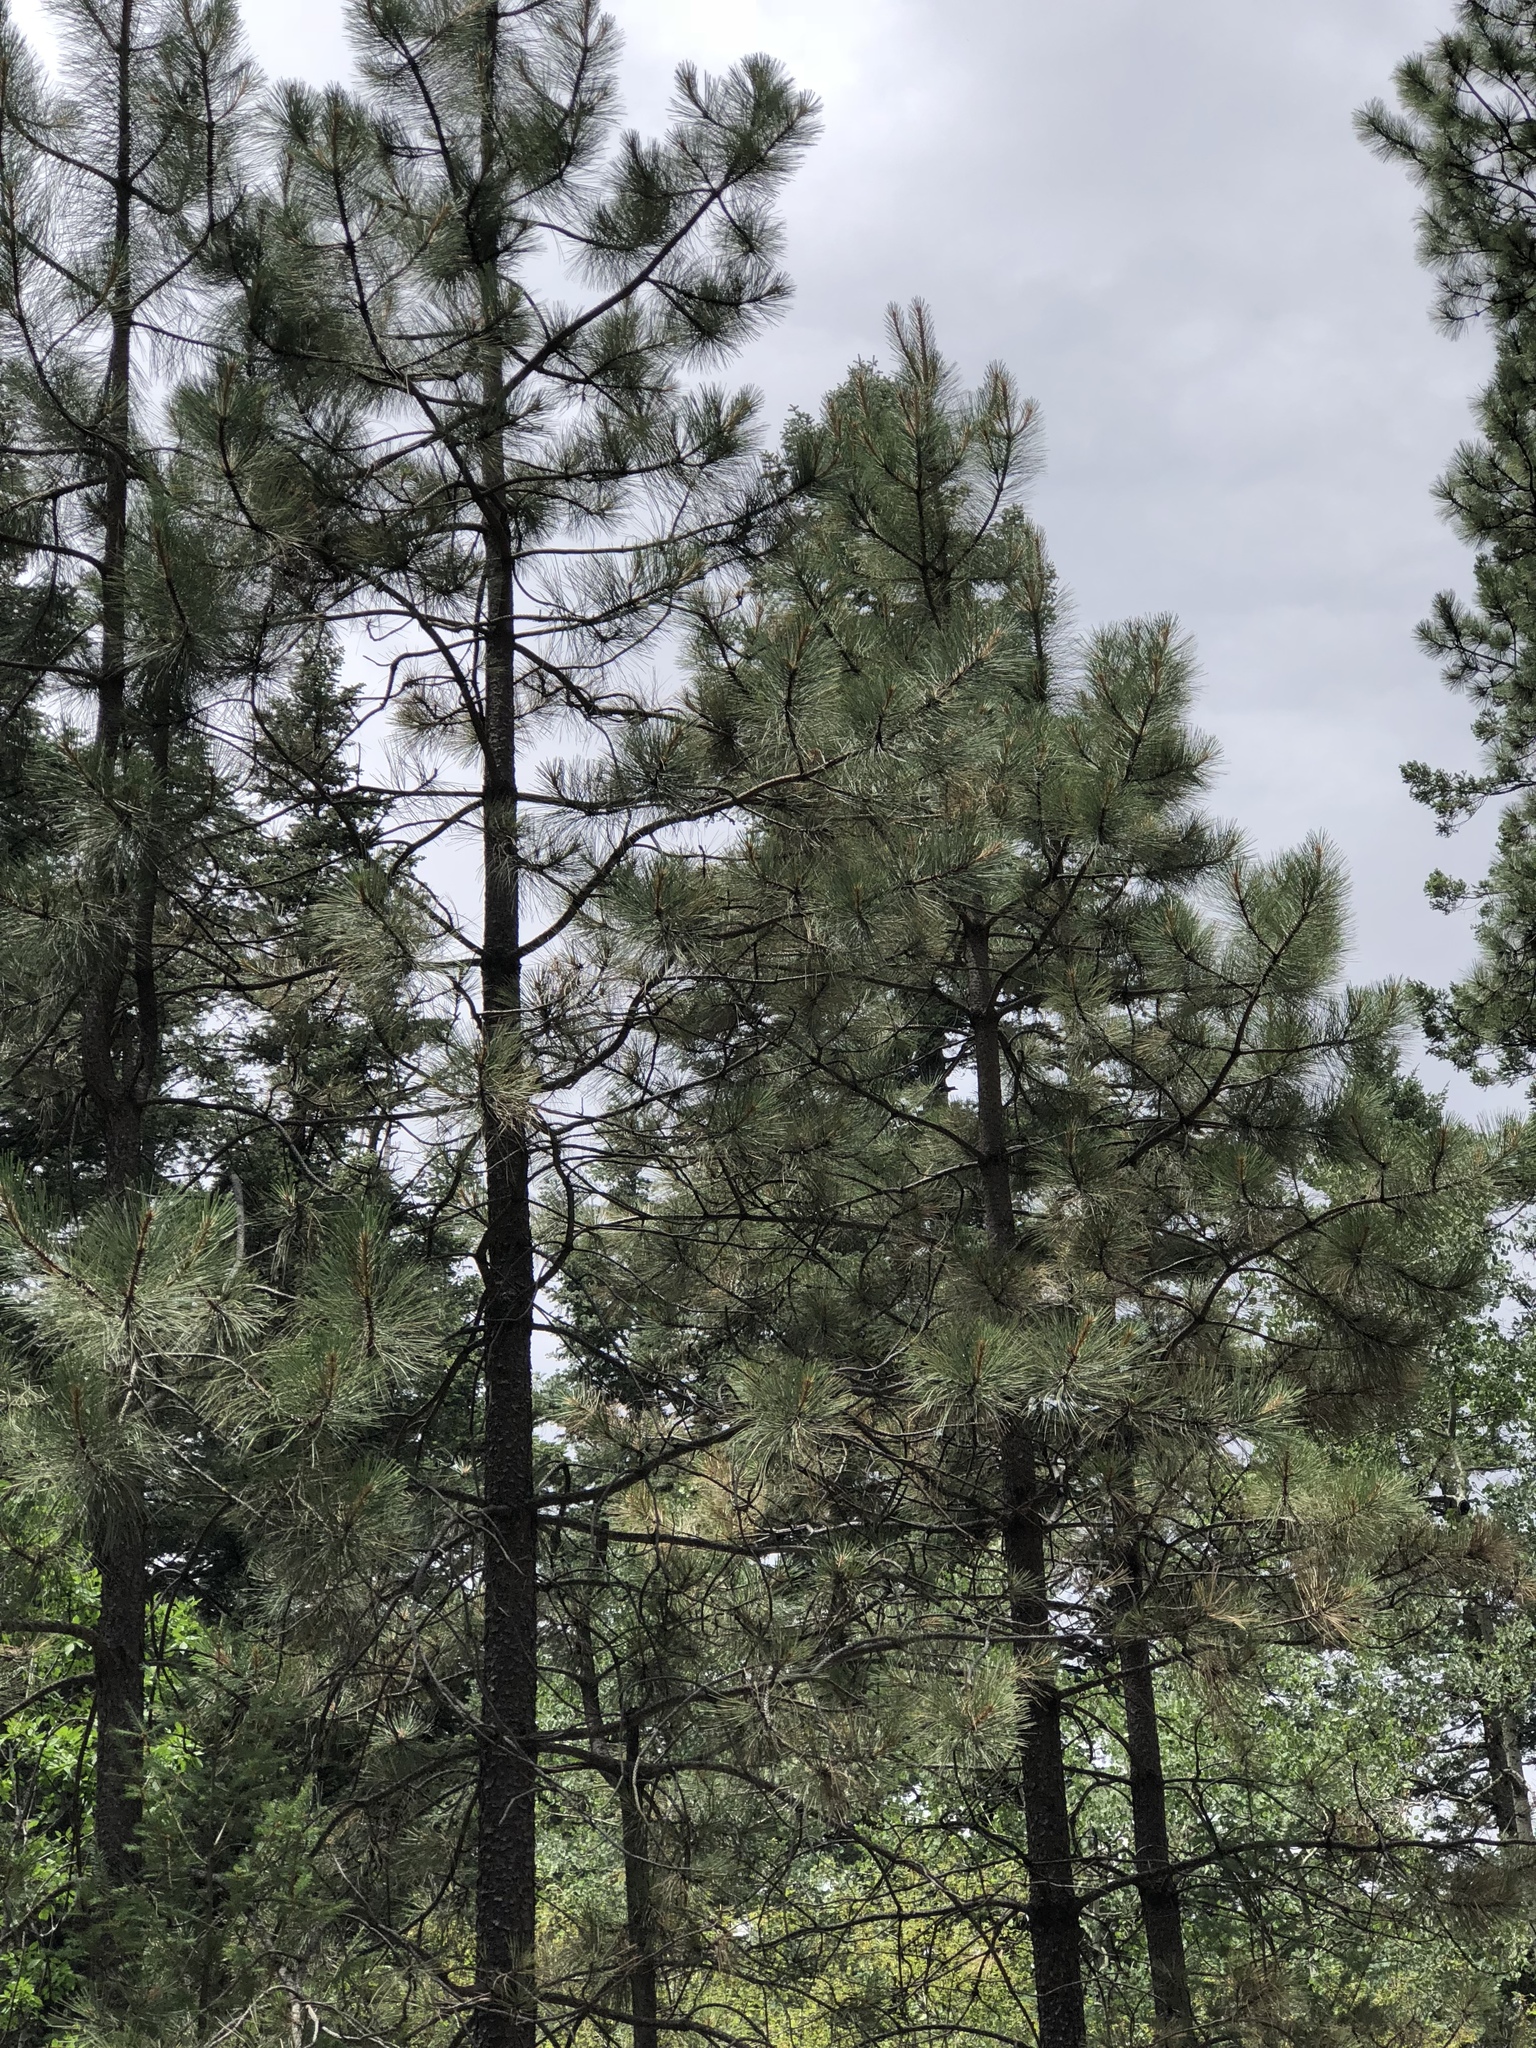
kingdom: Plantae
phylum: Tracheophyta
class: Pinopsida
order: Pinales
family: Pinaceae
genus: Pinus
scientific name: Pinus ponderosa
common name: Western yellow-pine
